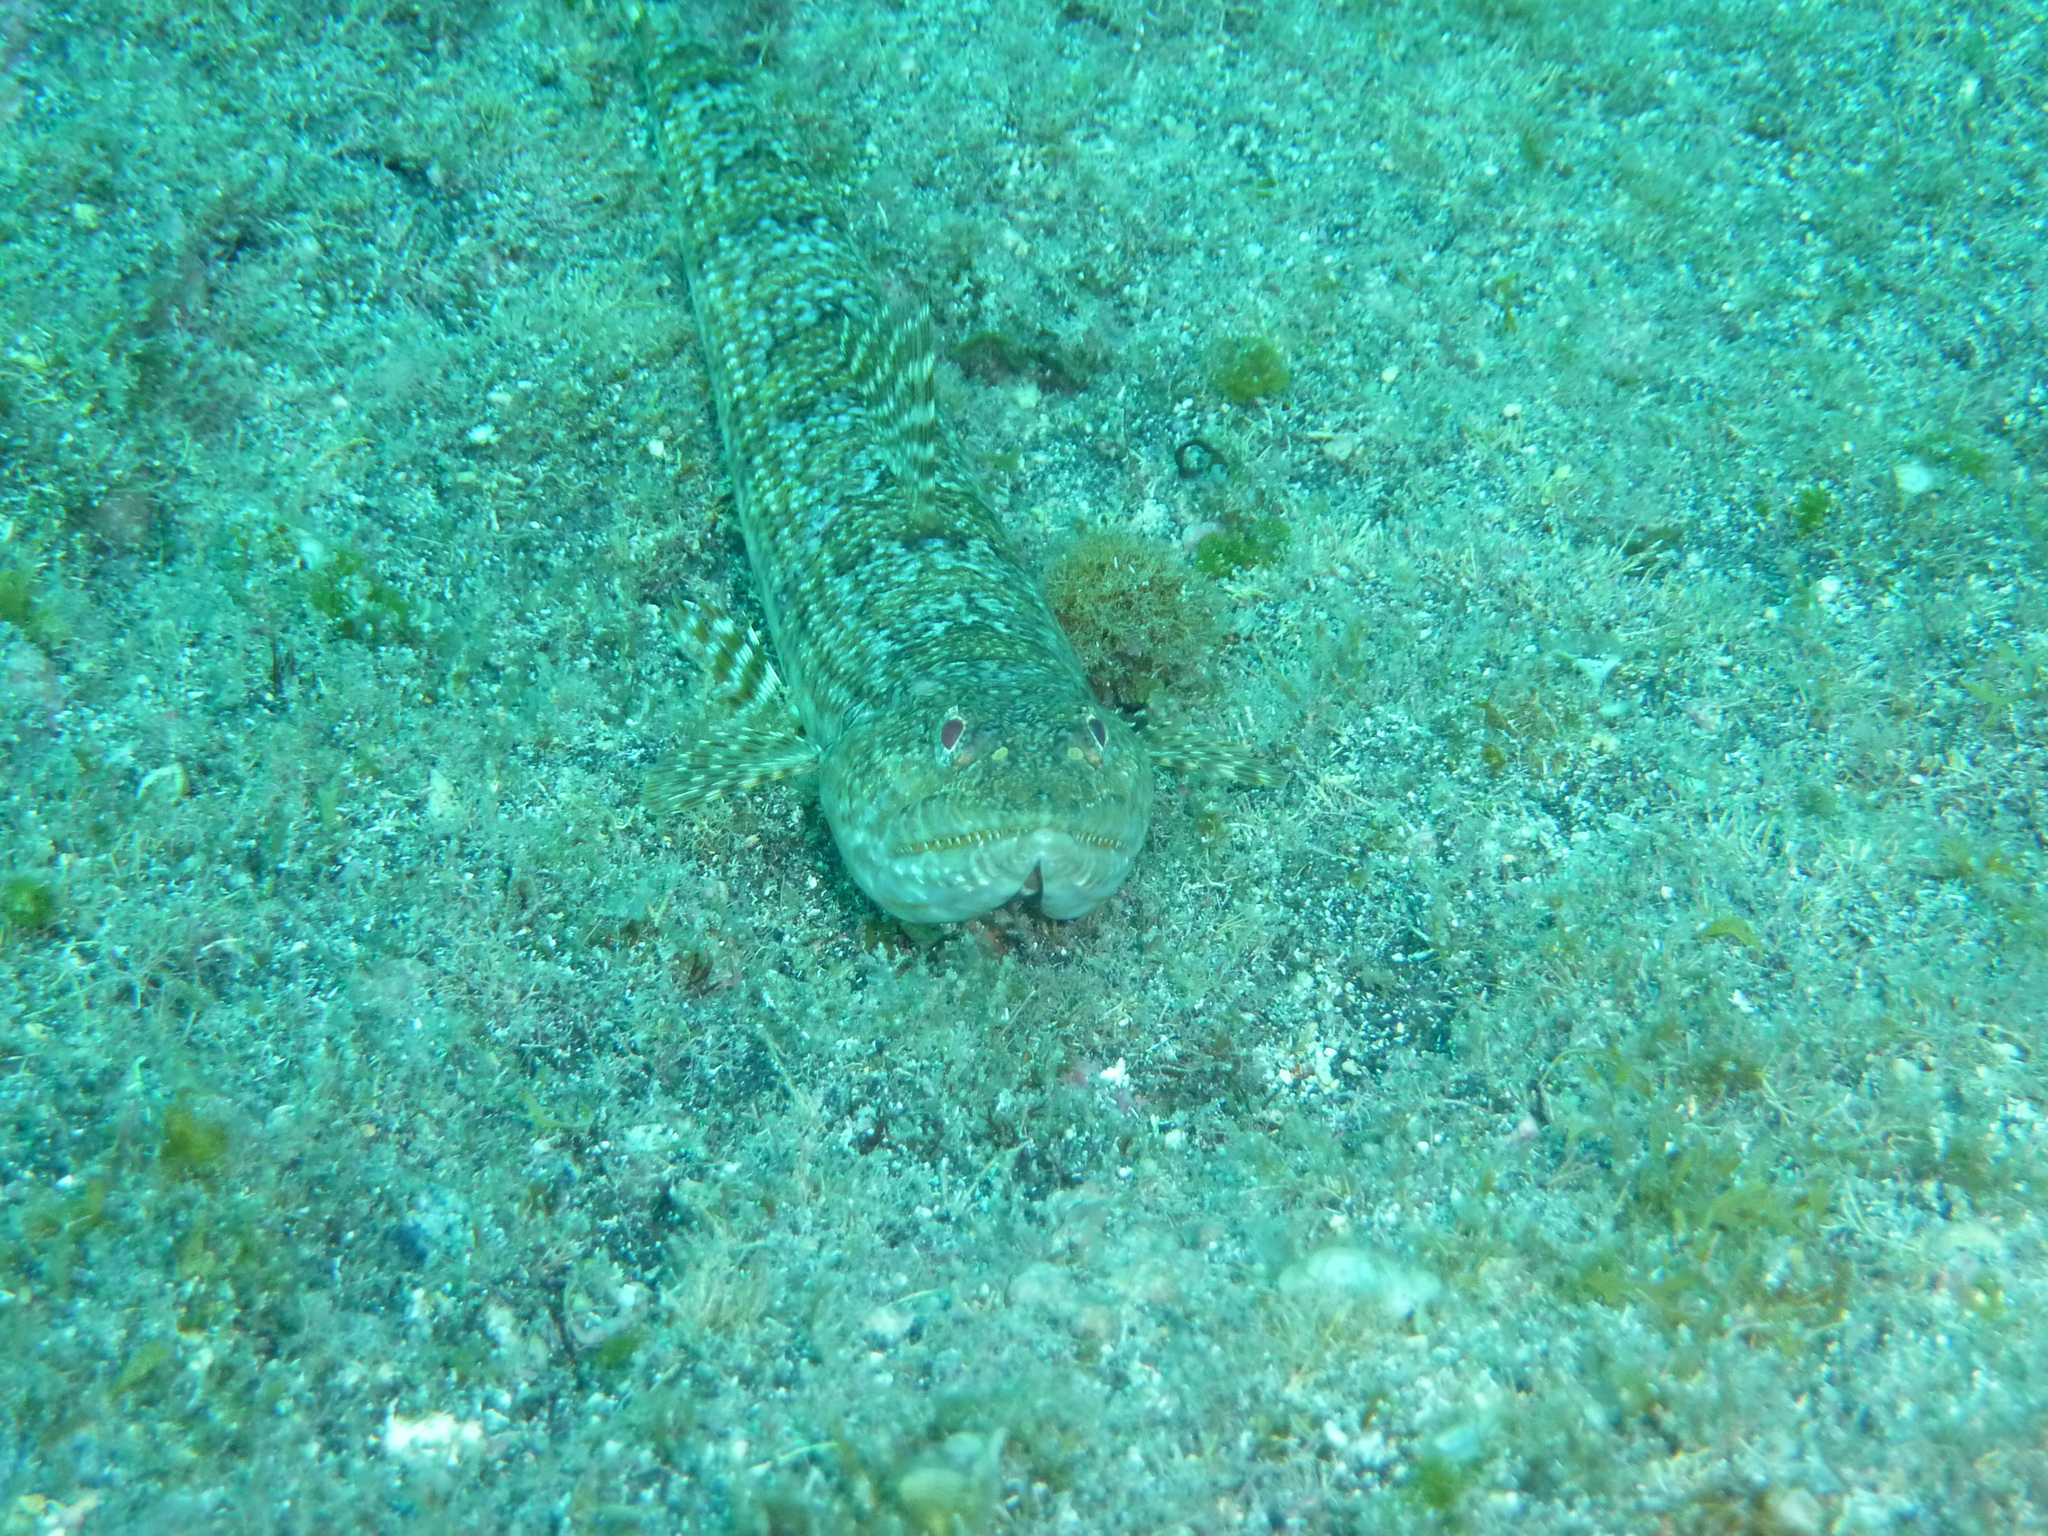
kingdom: Animalia
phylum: Chordata
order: Aulopiformes
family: Synodontidae
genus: Synodus
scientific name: Synodus synodus
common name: Red lizardfish
